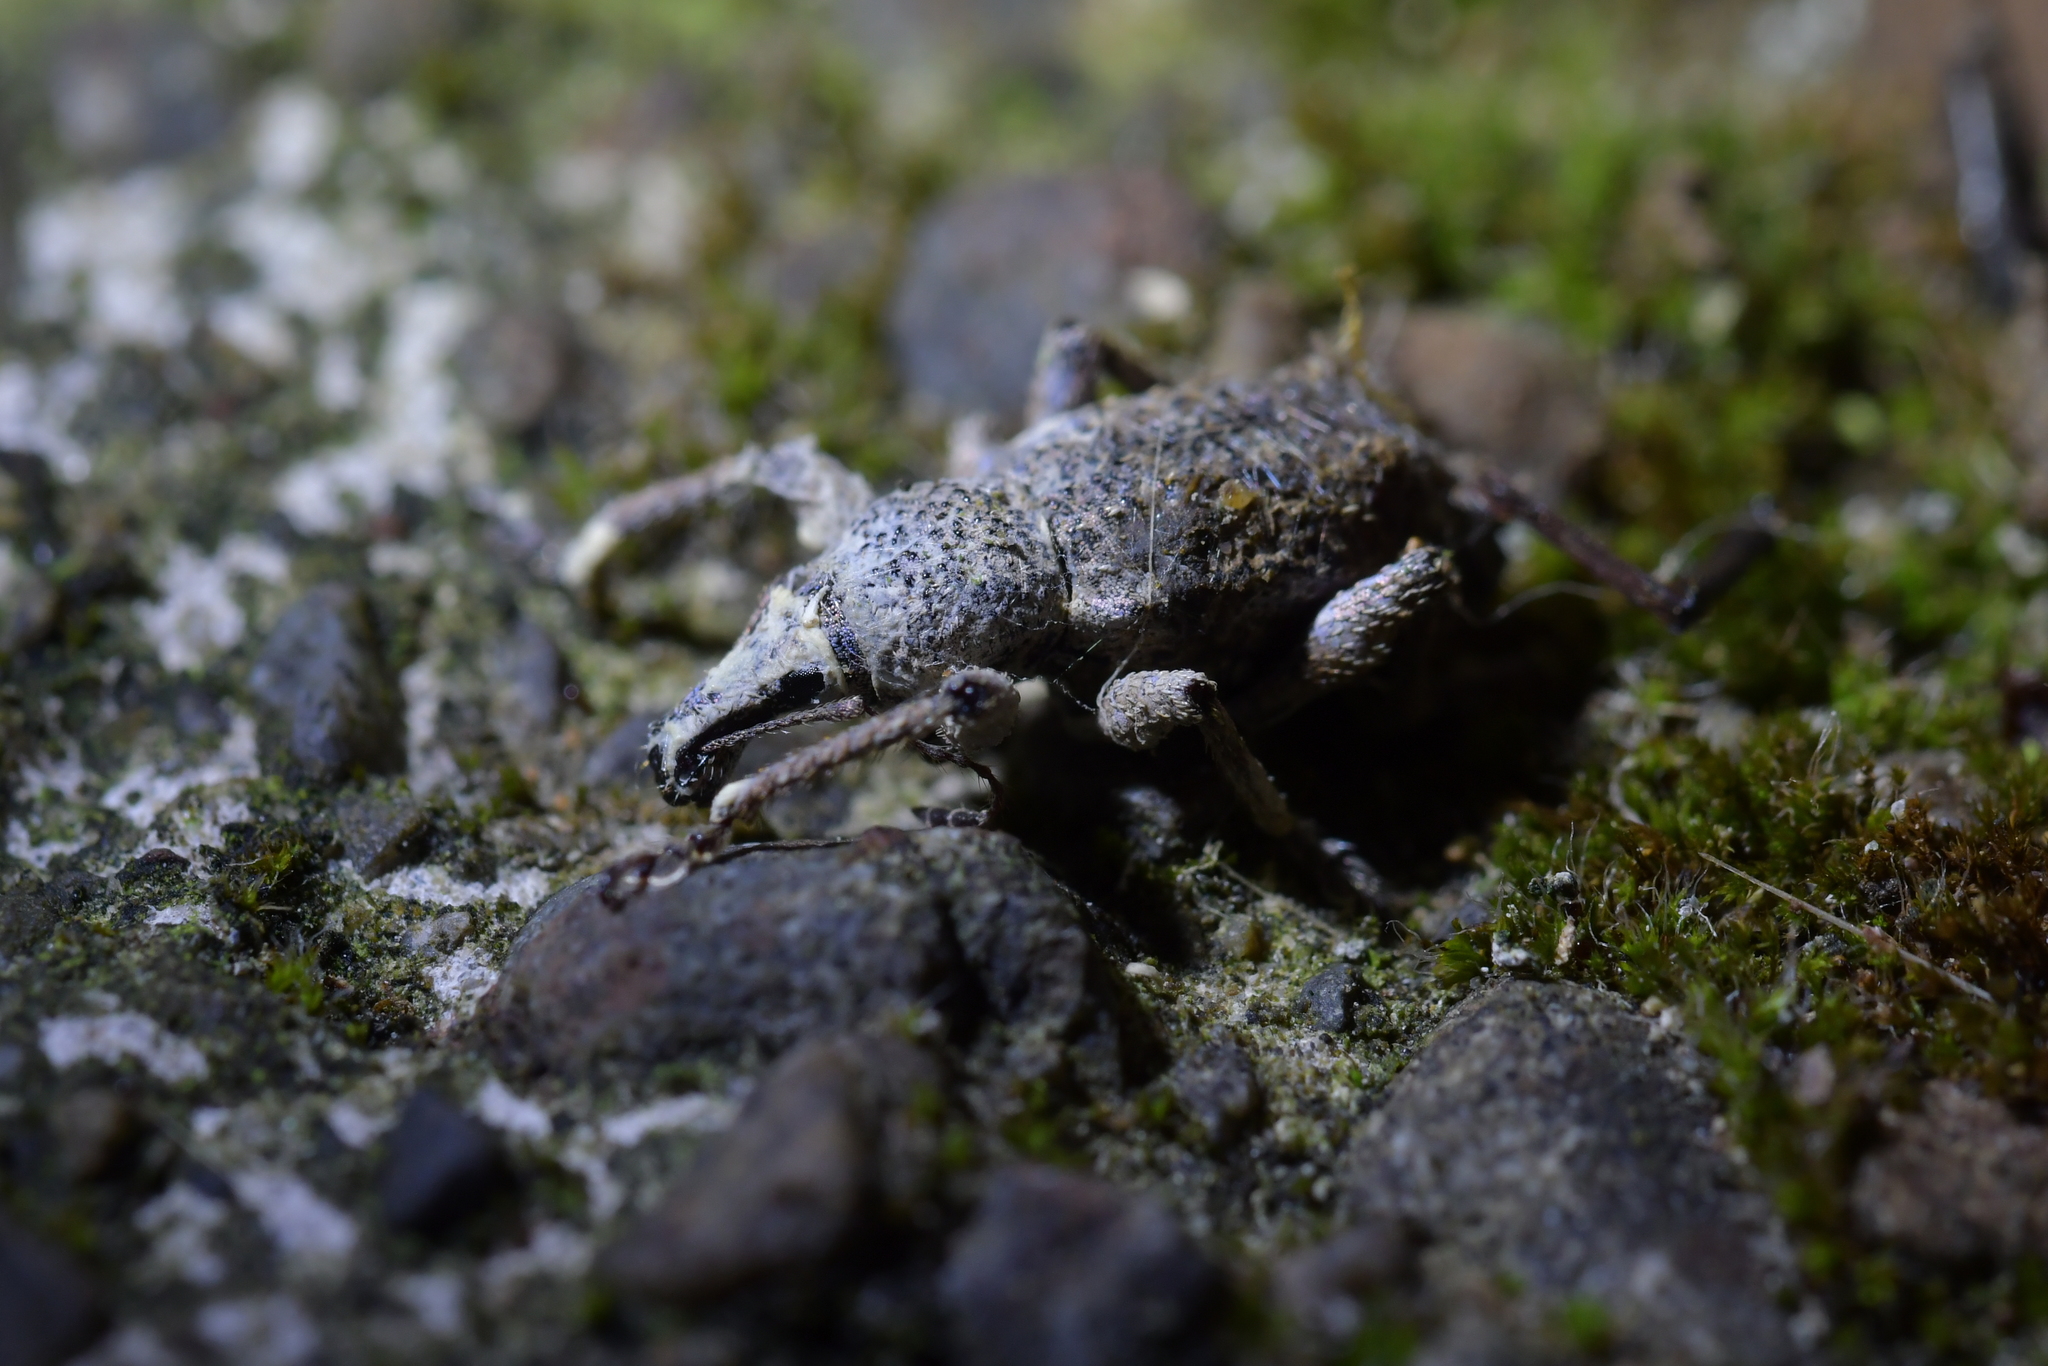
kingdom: Animalia
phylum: Arthropoda
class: Insecta
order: Coleoptera
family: Curculionidae
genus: Catoptes
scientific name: Catoptes binodis
